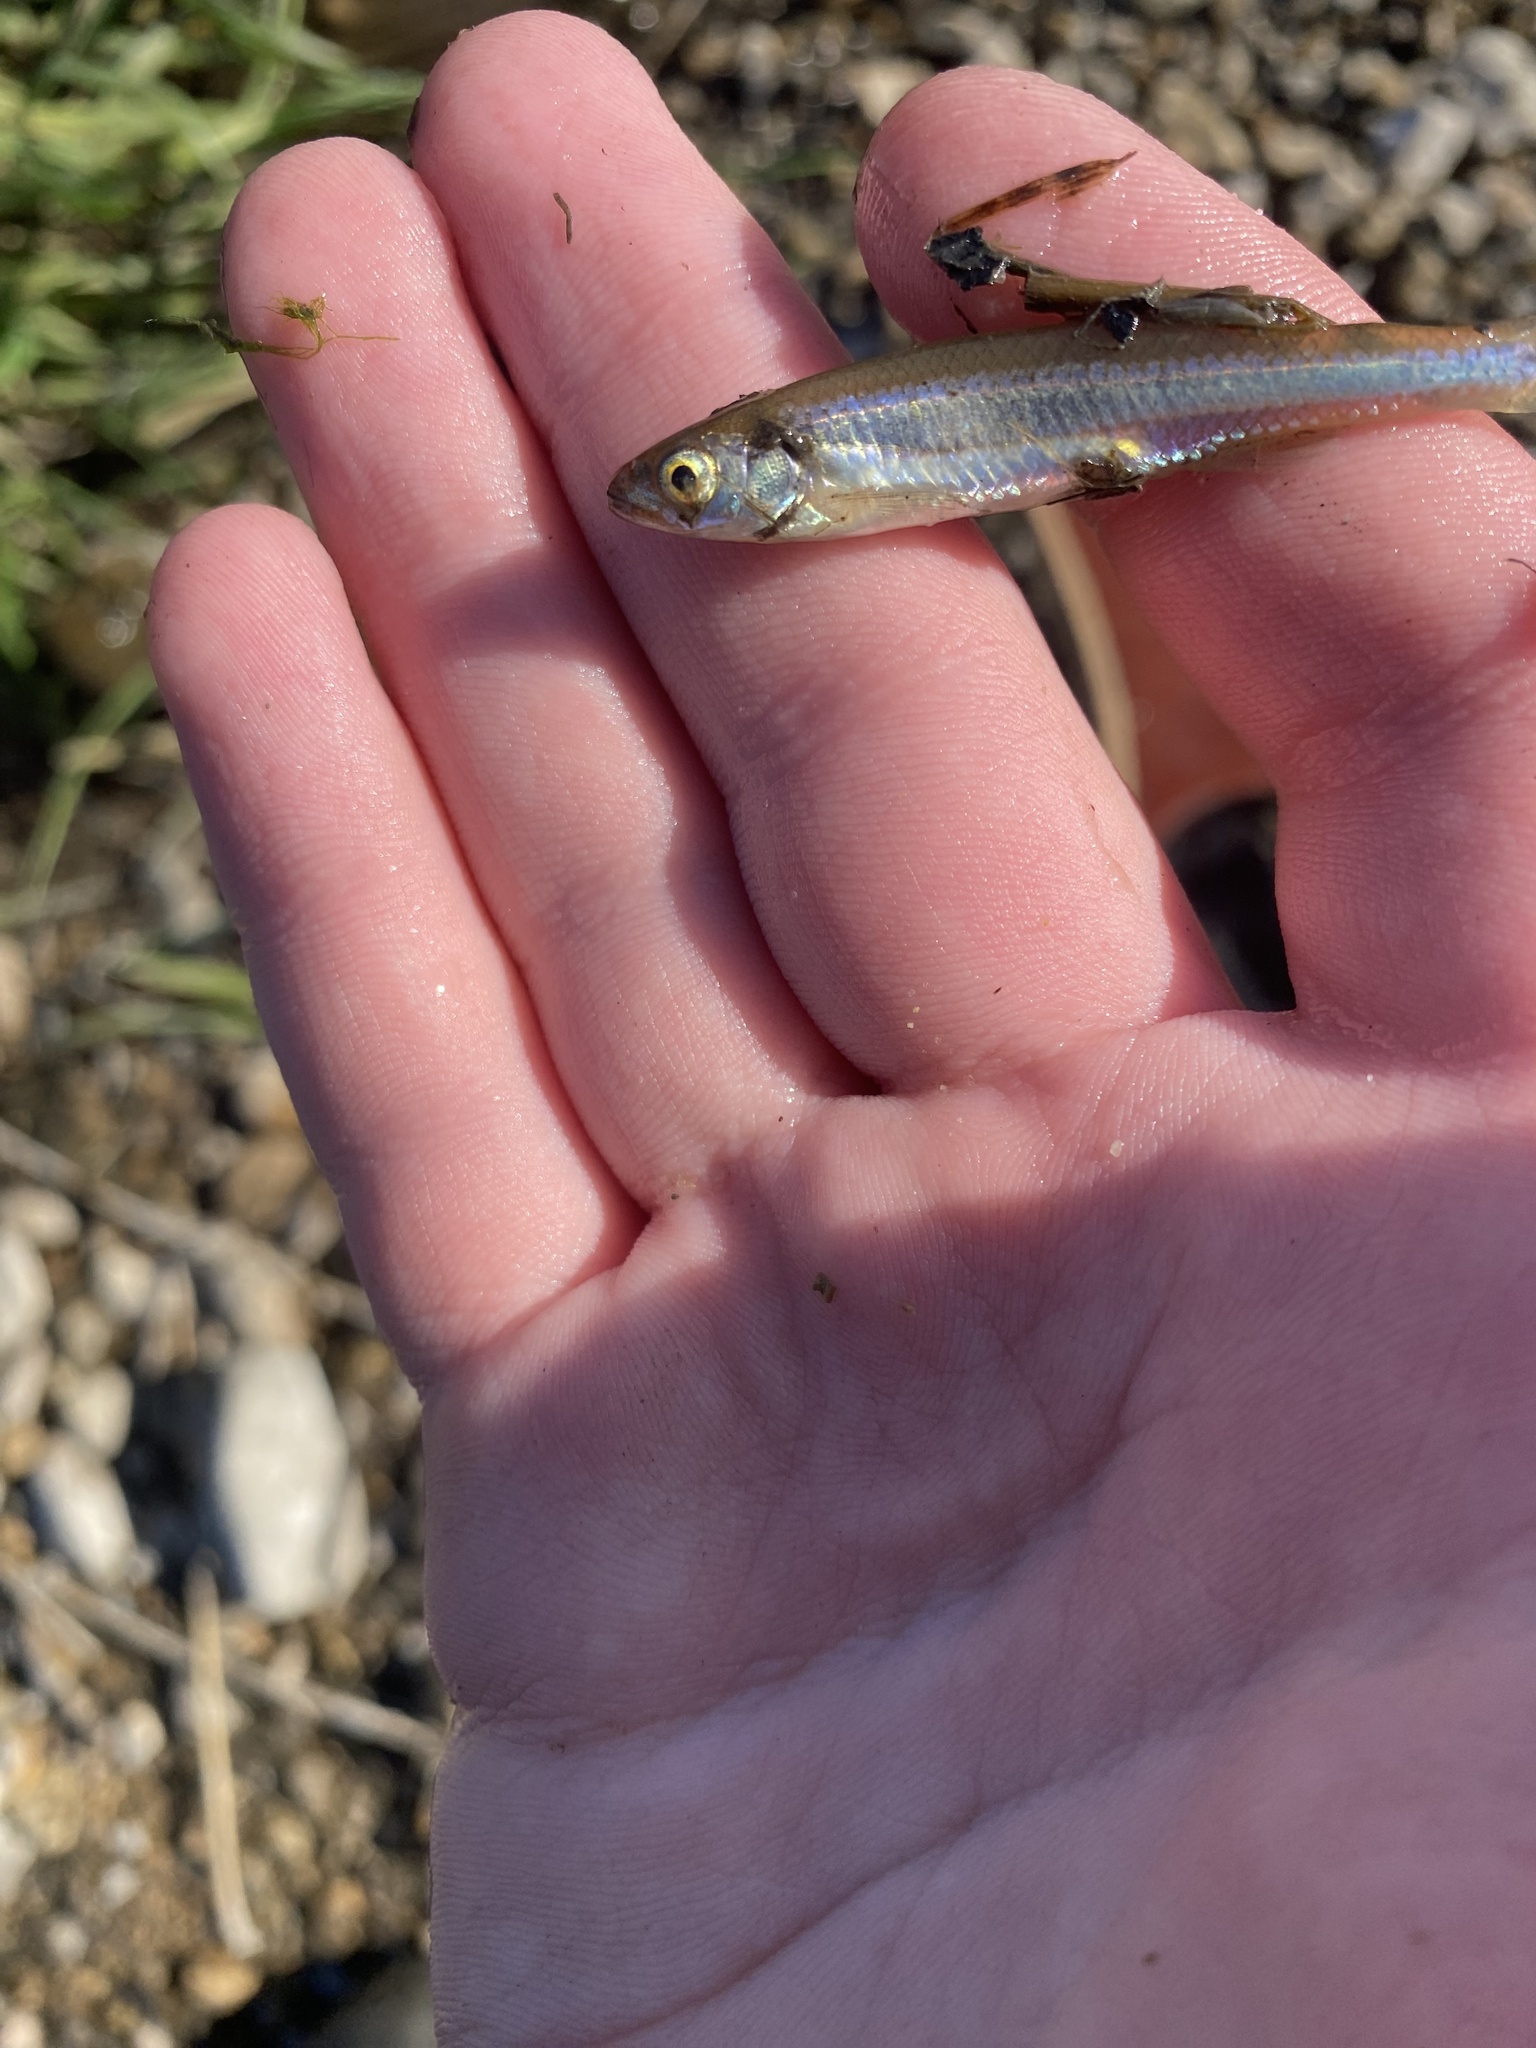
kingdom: Animalia
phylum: Chordata
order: Cypriniformes
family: Cyprinidae
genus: Notropis
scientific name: Notropis percobromus
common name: Carmine shiner
